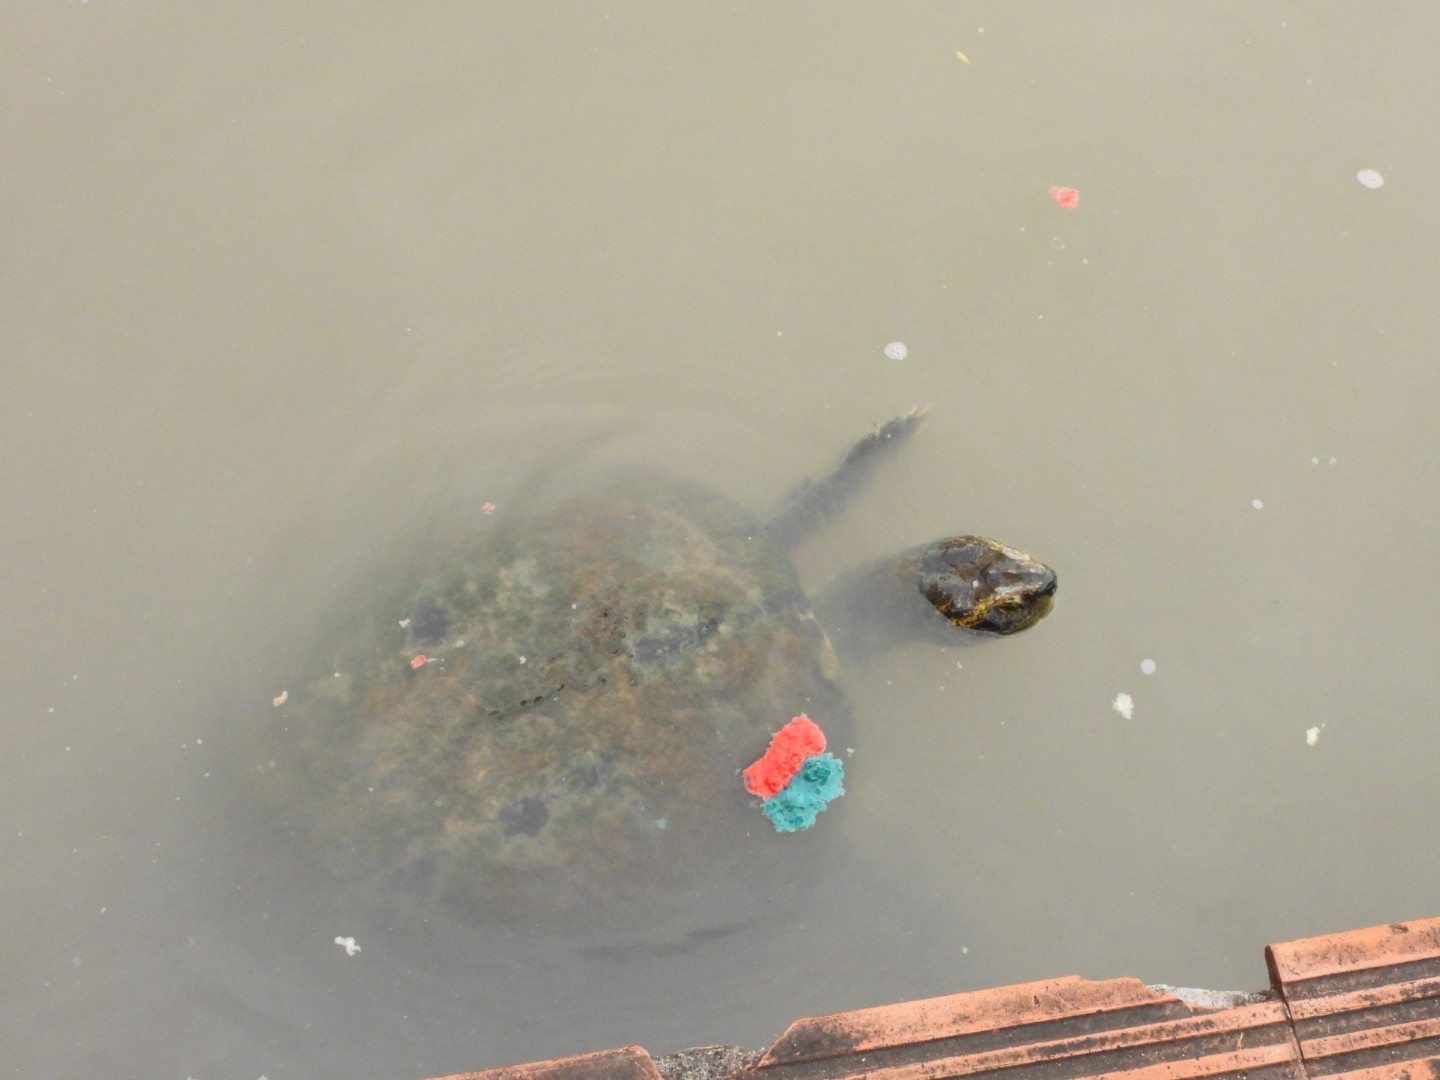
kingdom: Animalia
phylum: Chordata
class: Testudines
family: Geoemydidae
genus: Heosemys
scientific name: Heosemys annandalii
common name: Yellow-headed temple turtle
